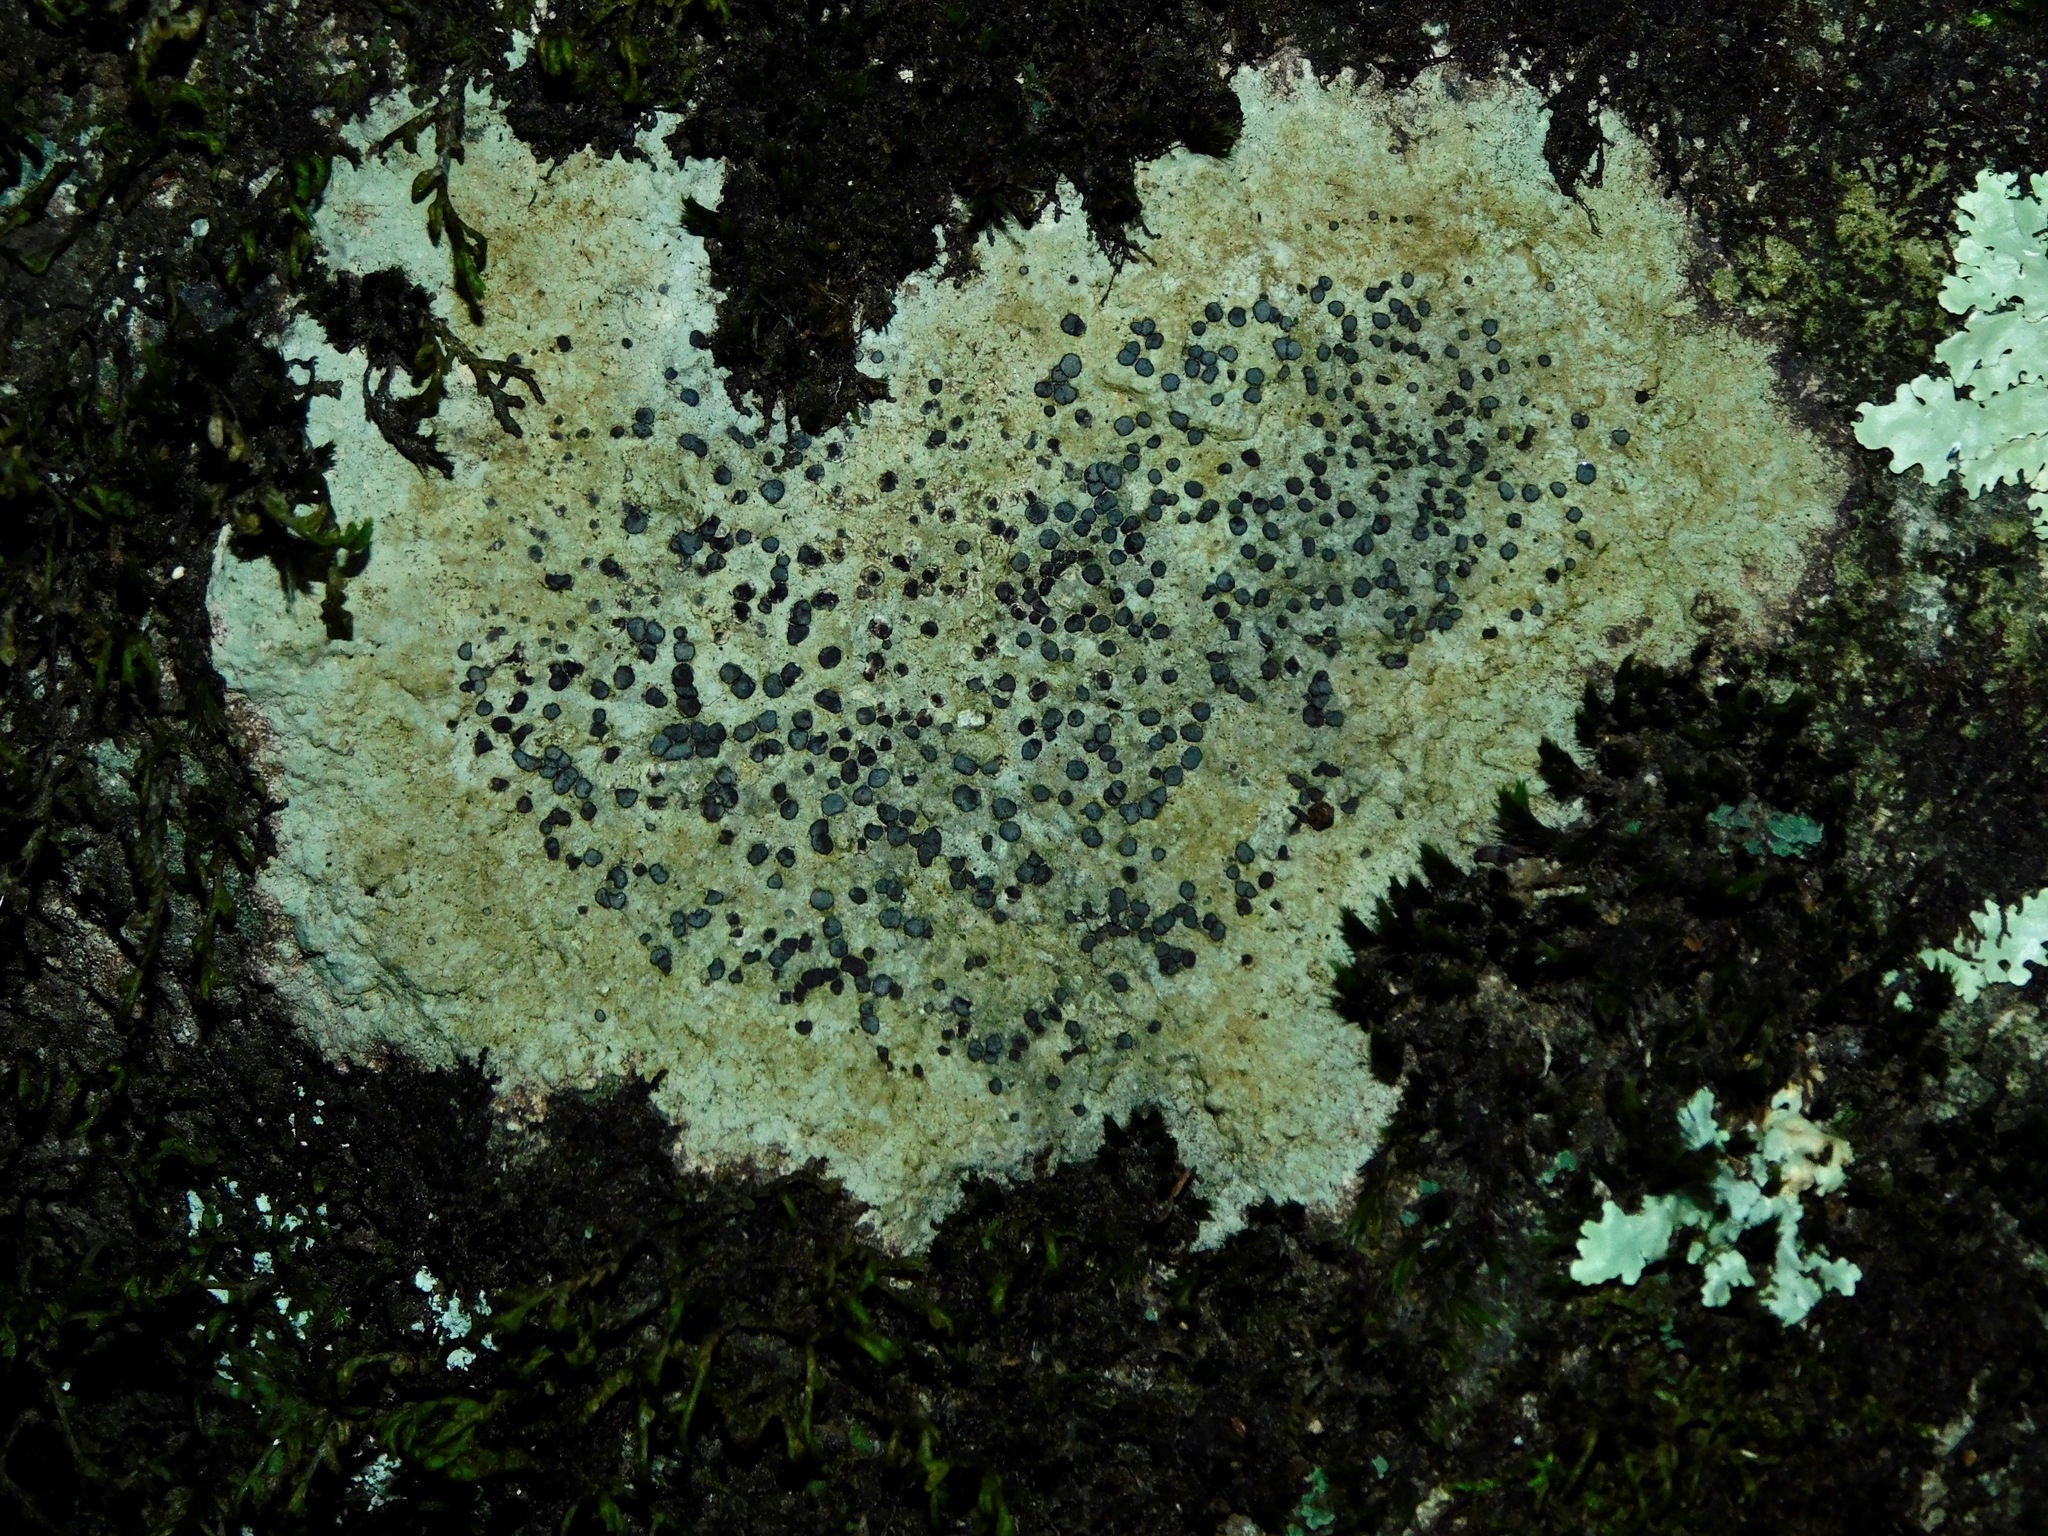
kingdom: Fungi
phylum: Ascomycota
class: Lecanoromycetes
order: Lecideales
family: Lecideaceae
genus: Porpidia
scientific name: Porpidia albocaerulescens
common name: Smokey-eyed boulder lichen
